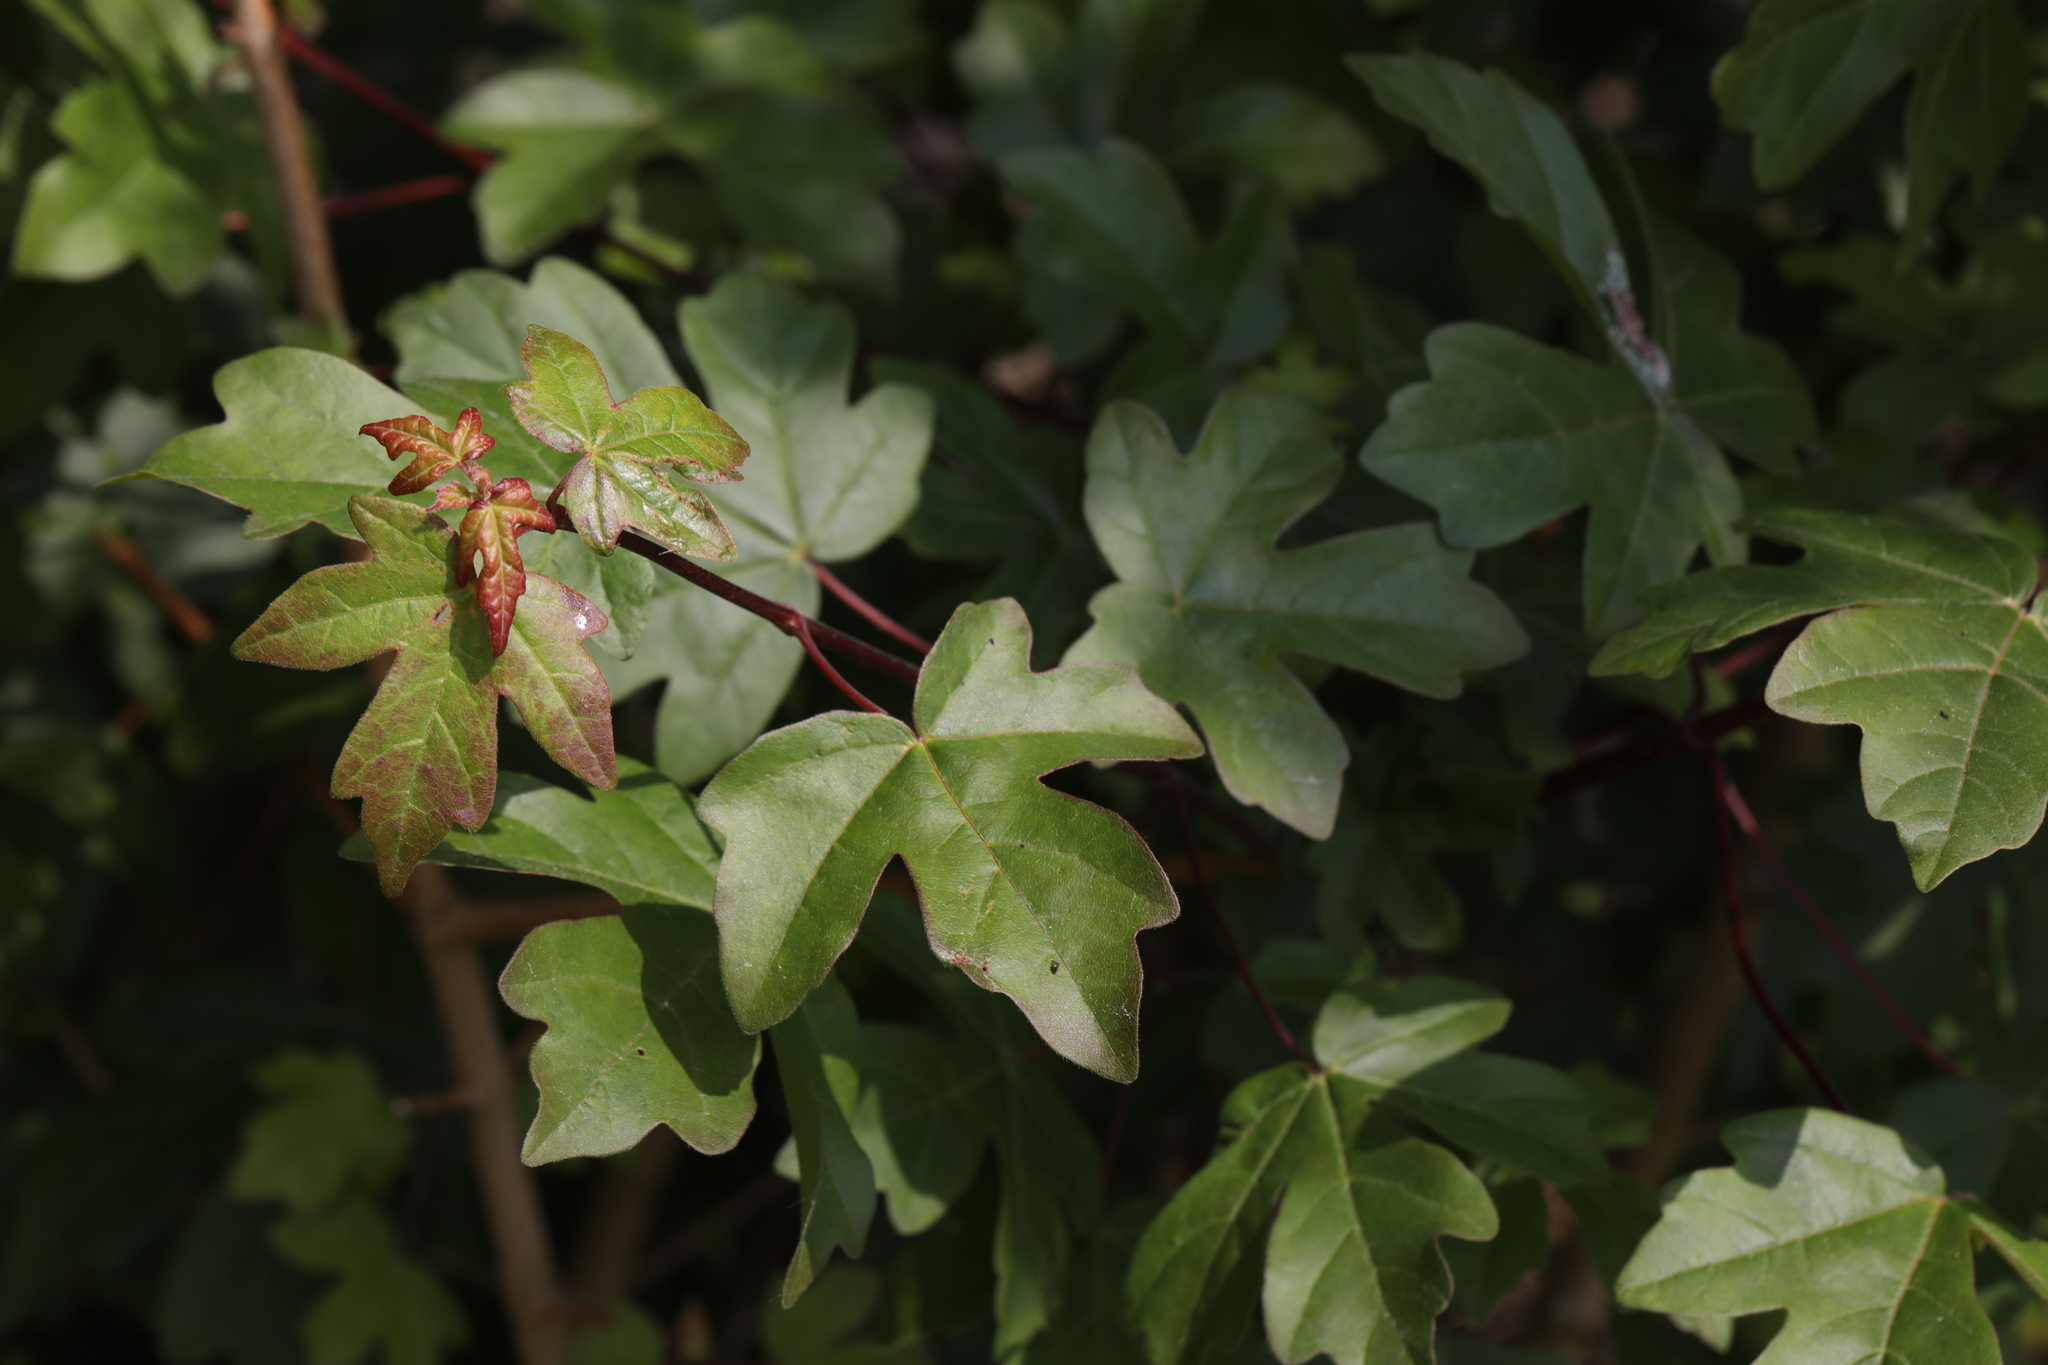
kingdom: Plantae
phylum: Tracheophyta
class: Magnoliopsida
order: Sapindales
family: Sapindaceae
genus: Acer
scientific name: Acer campestre
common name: Field maple
